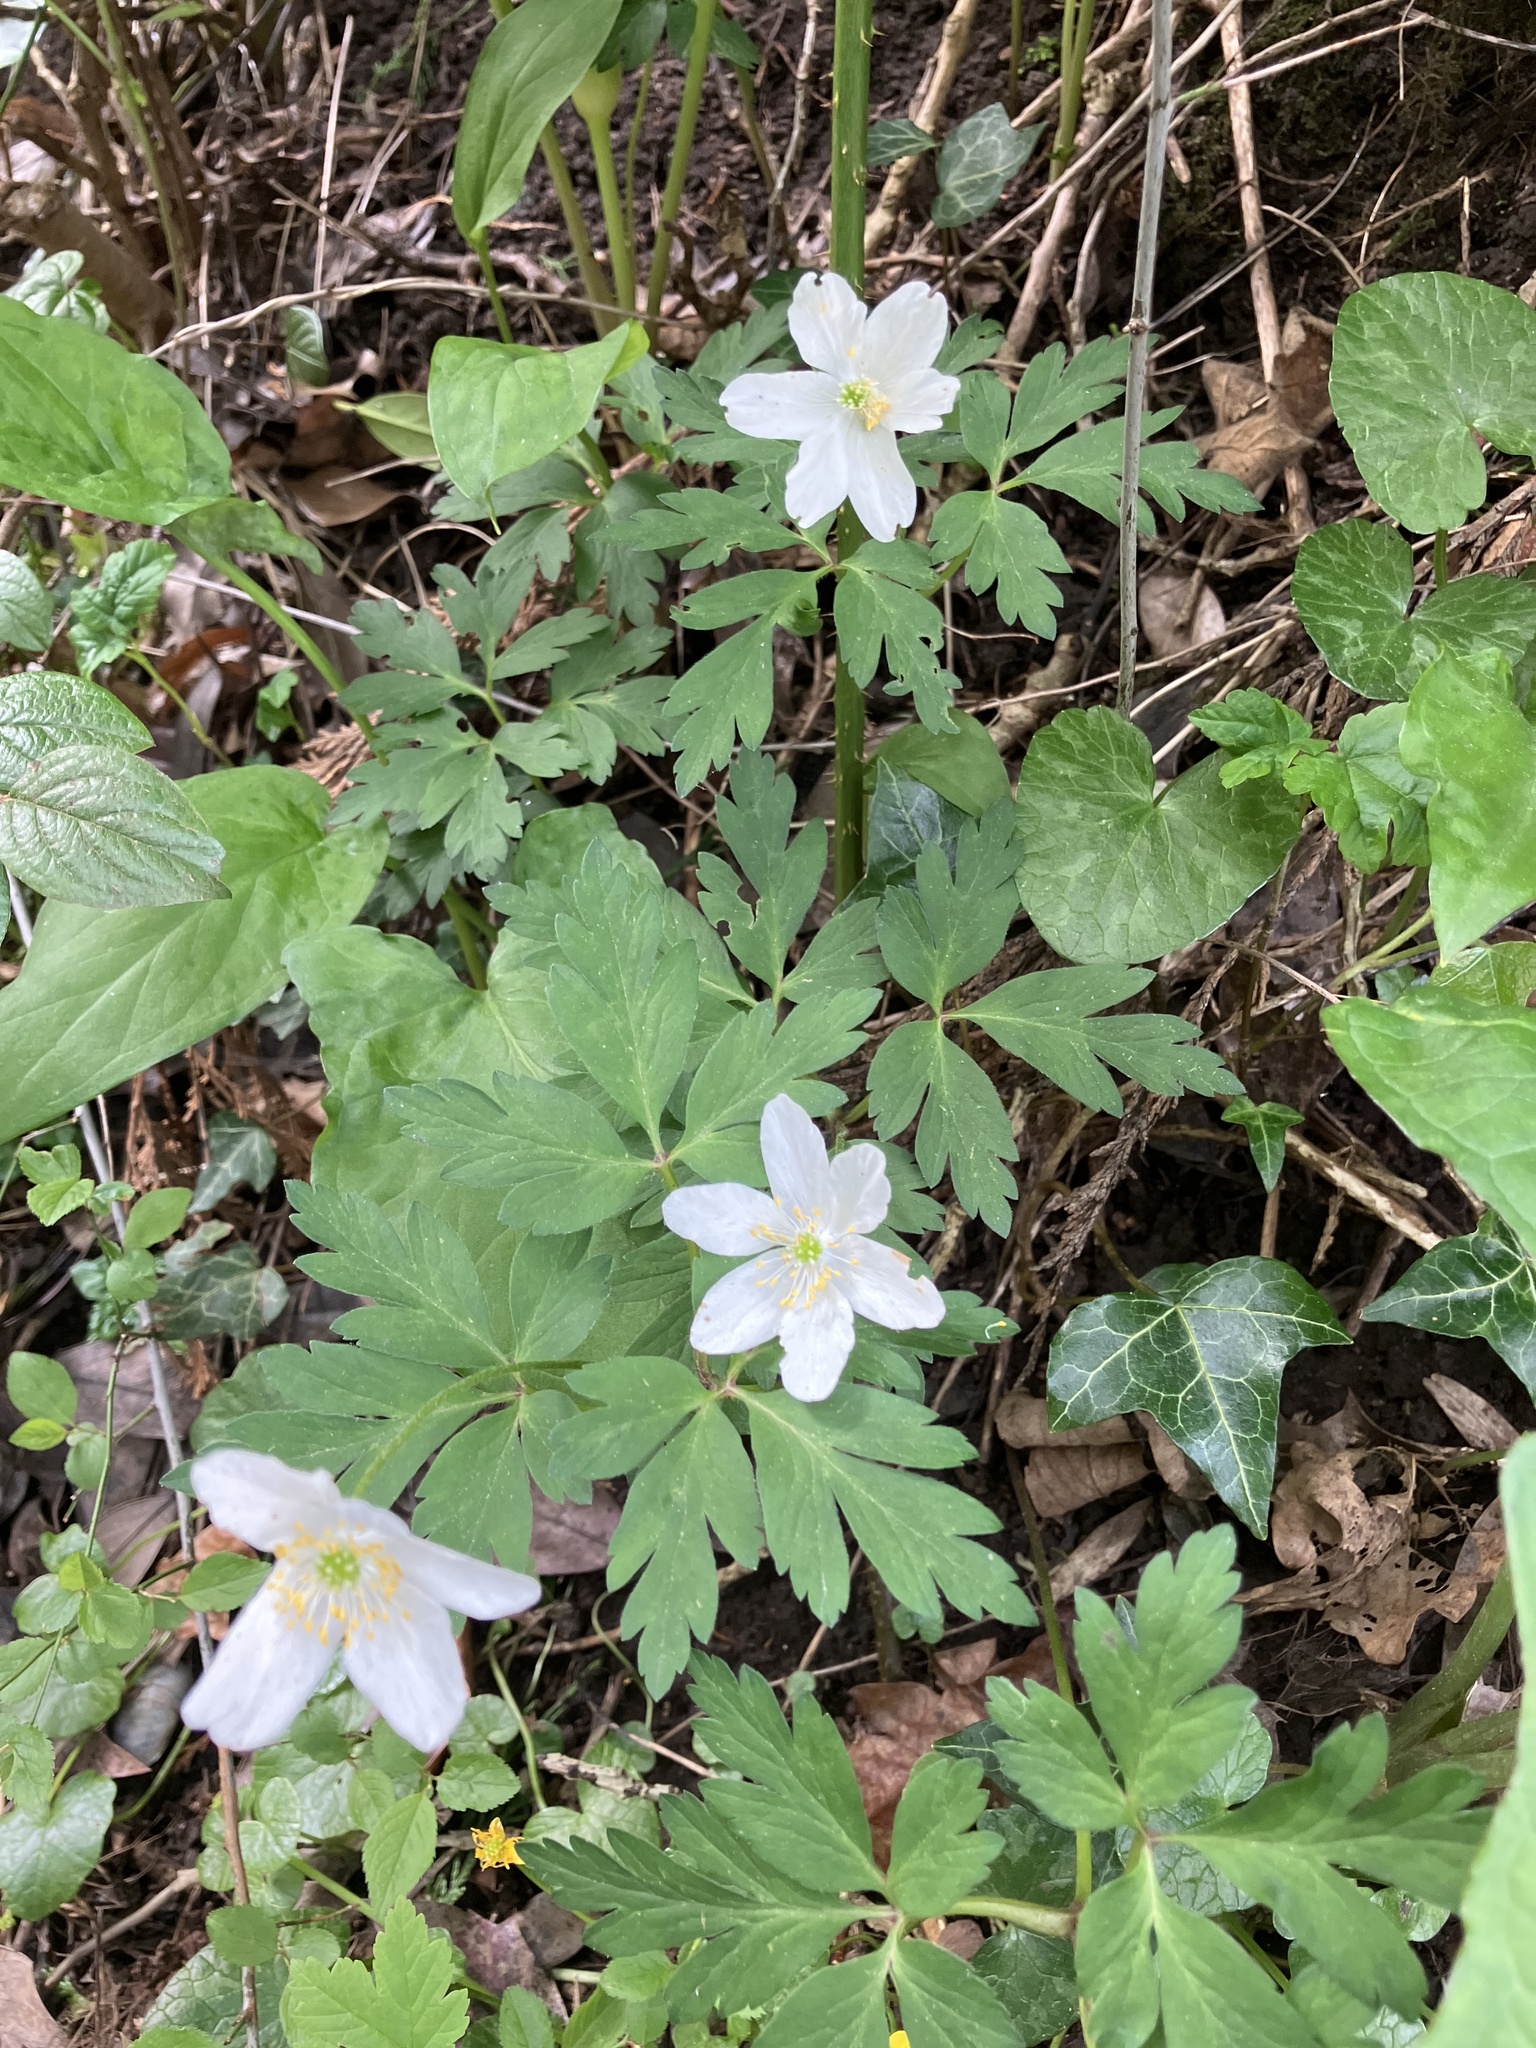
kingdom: Plantae
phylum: Tracheophyta
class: Magnoliopsida
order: Ranunculales
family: Ranunculaceae
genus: Anemone
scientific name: Anemone nemorosa
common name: Wood anemone
